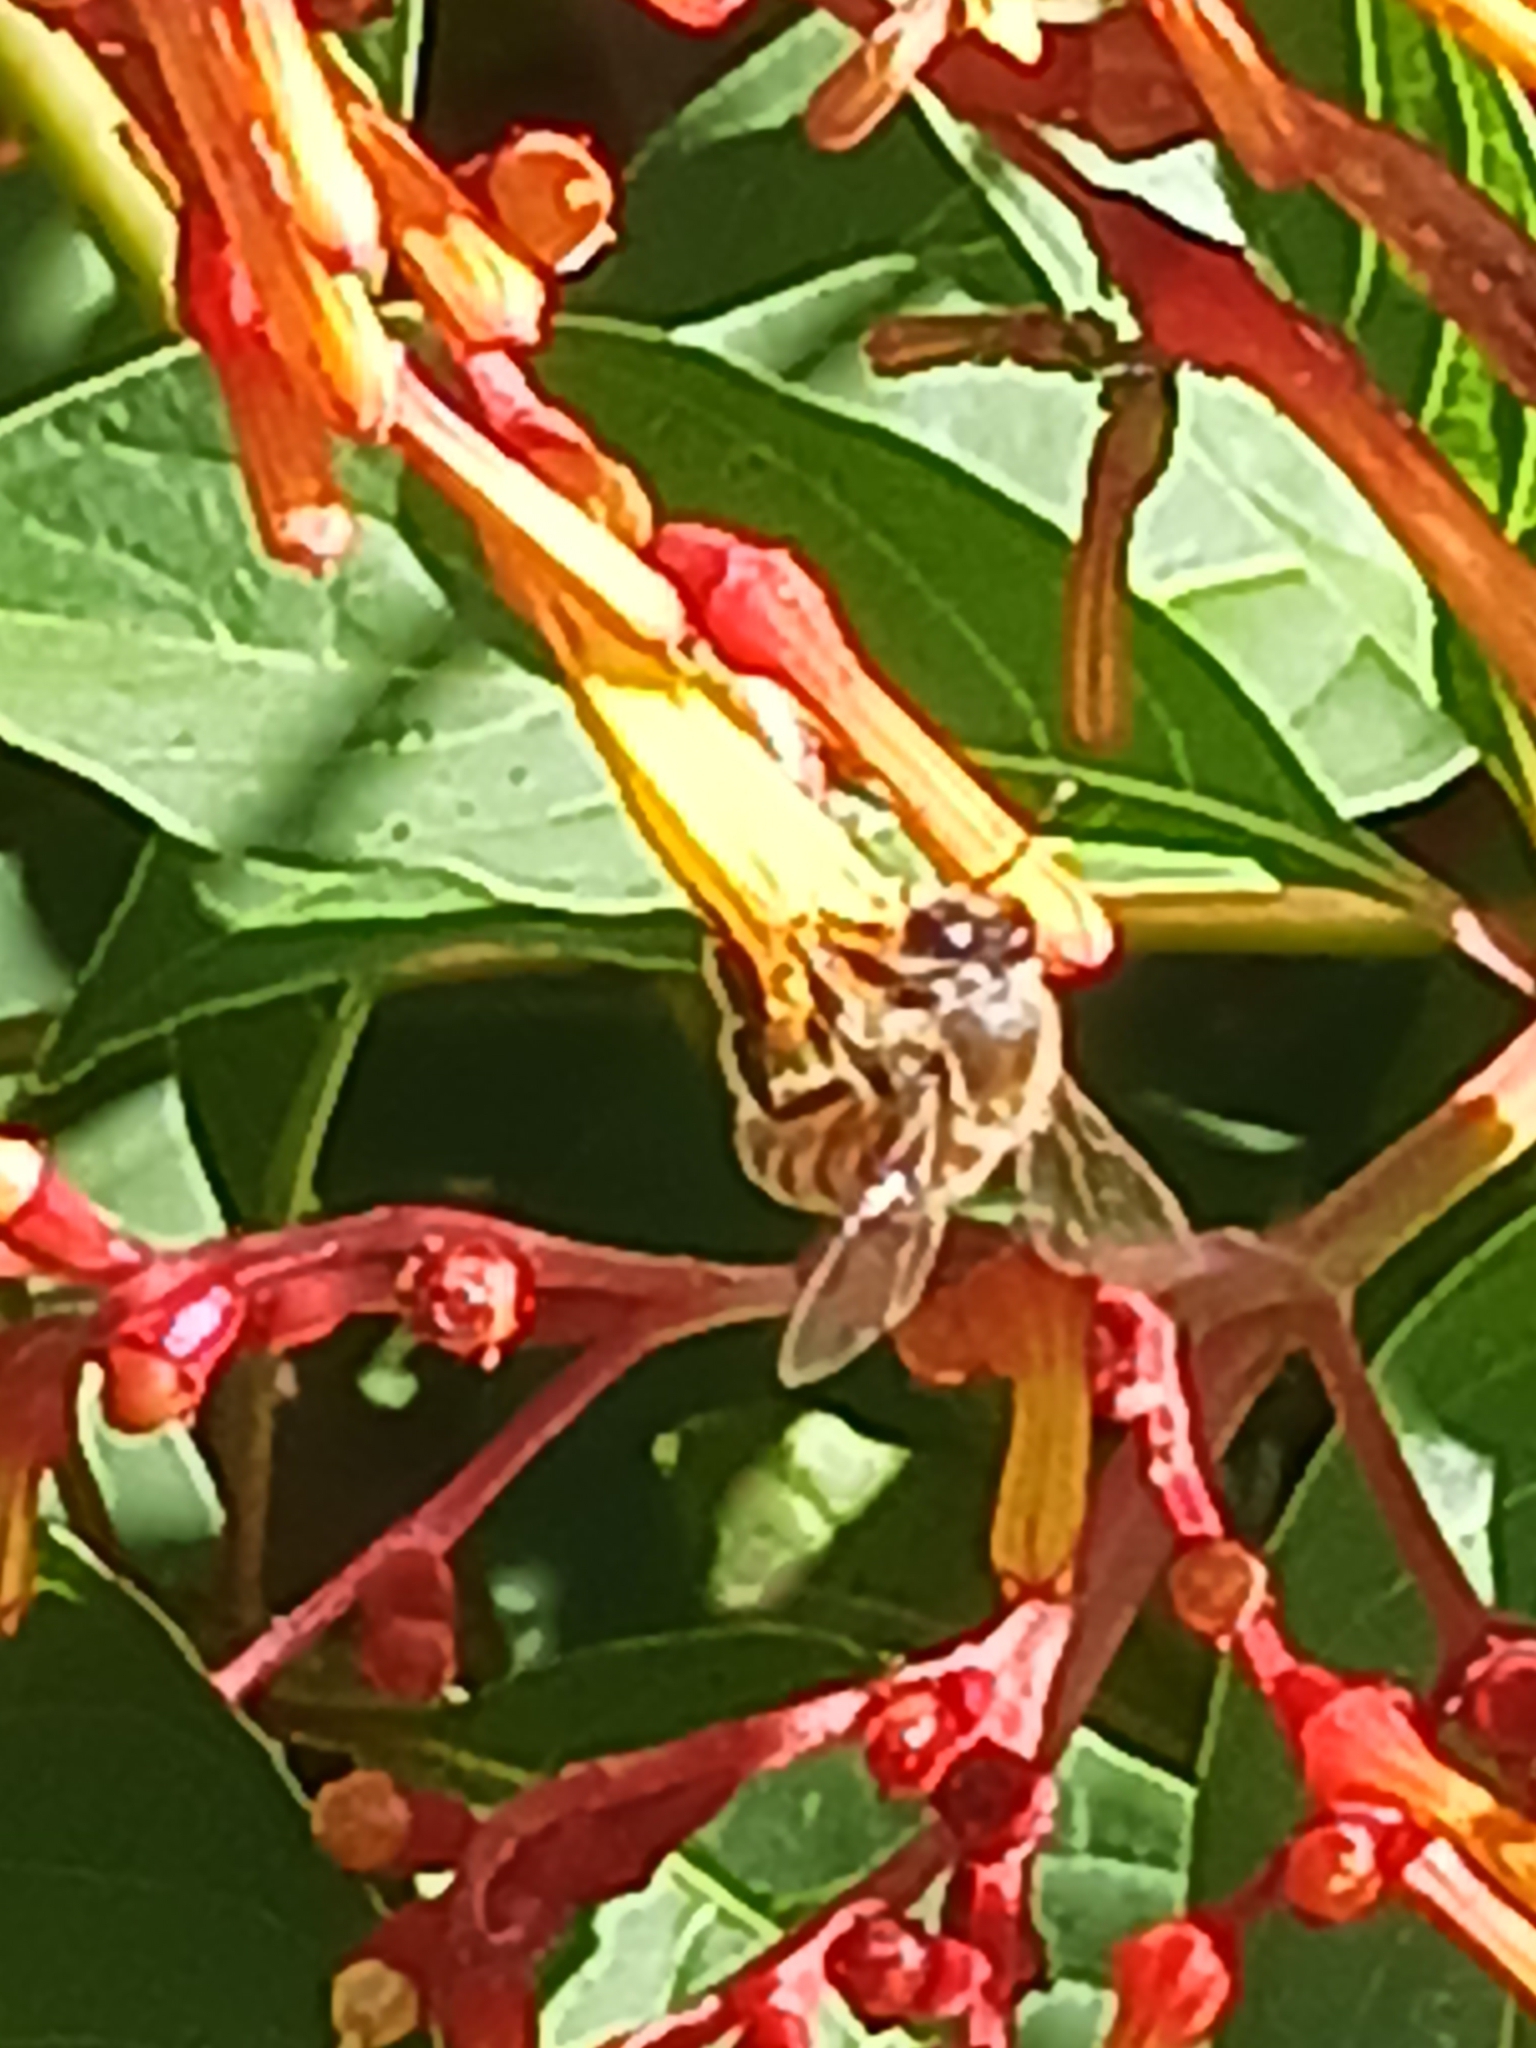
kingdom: Animalia
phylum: Arthropoda
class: Insecta
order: Hymenoptera
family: Apidae
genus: Apis
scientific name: Apis mellifera
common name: Honey bee
